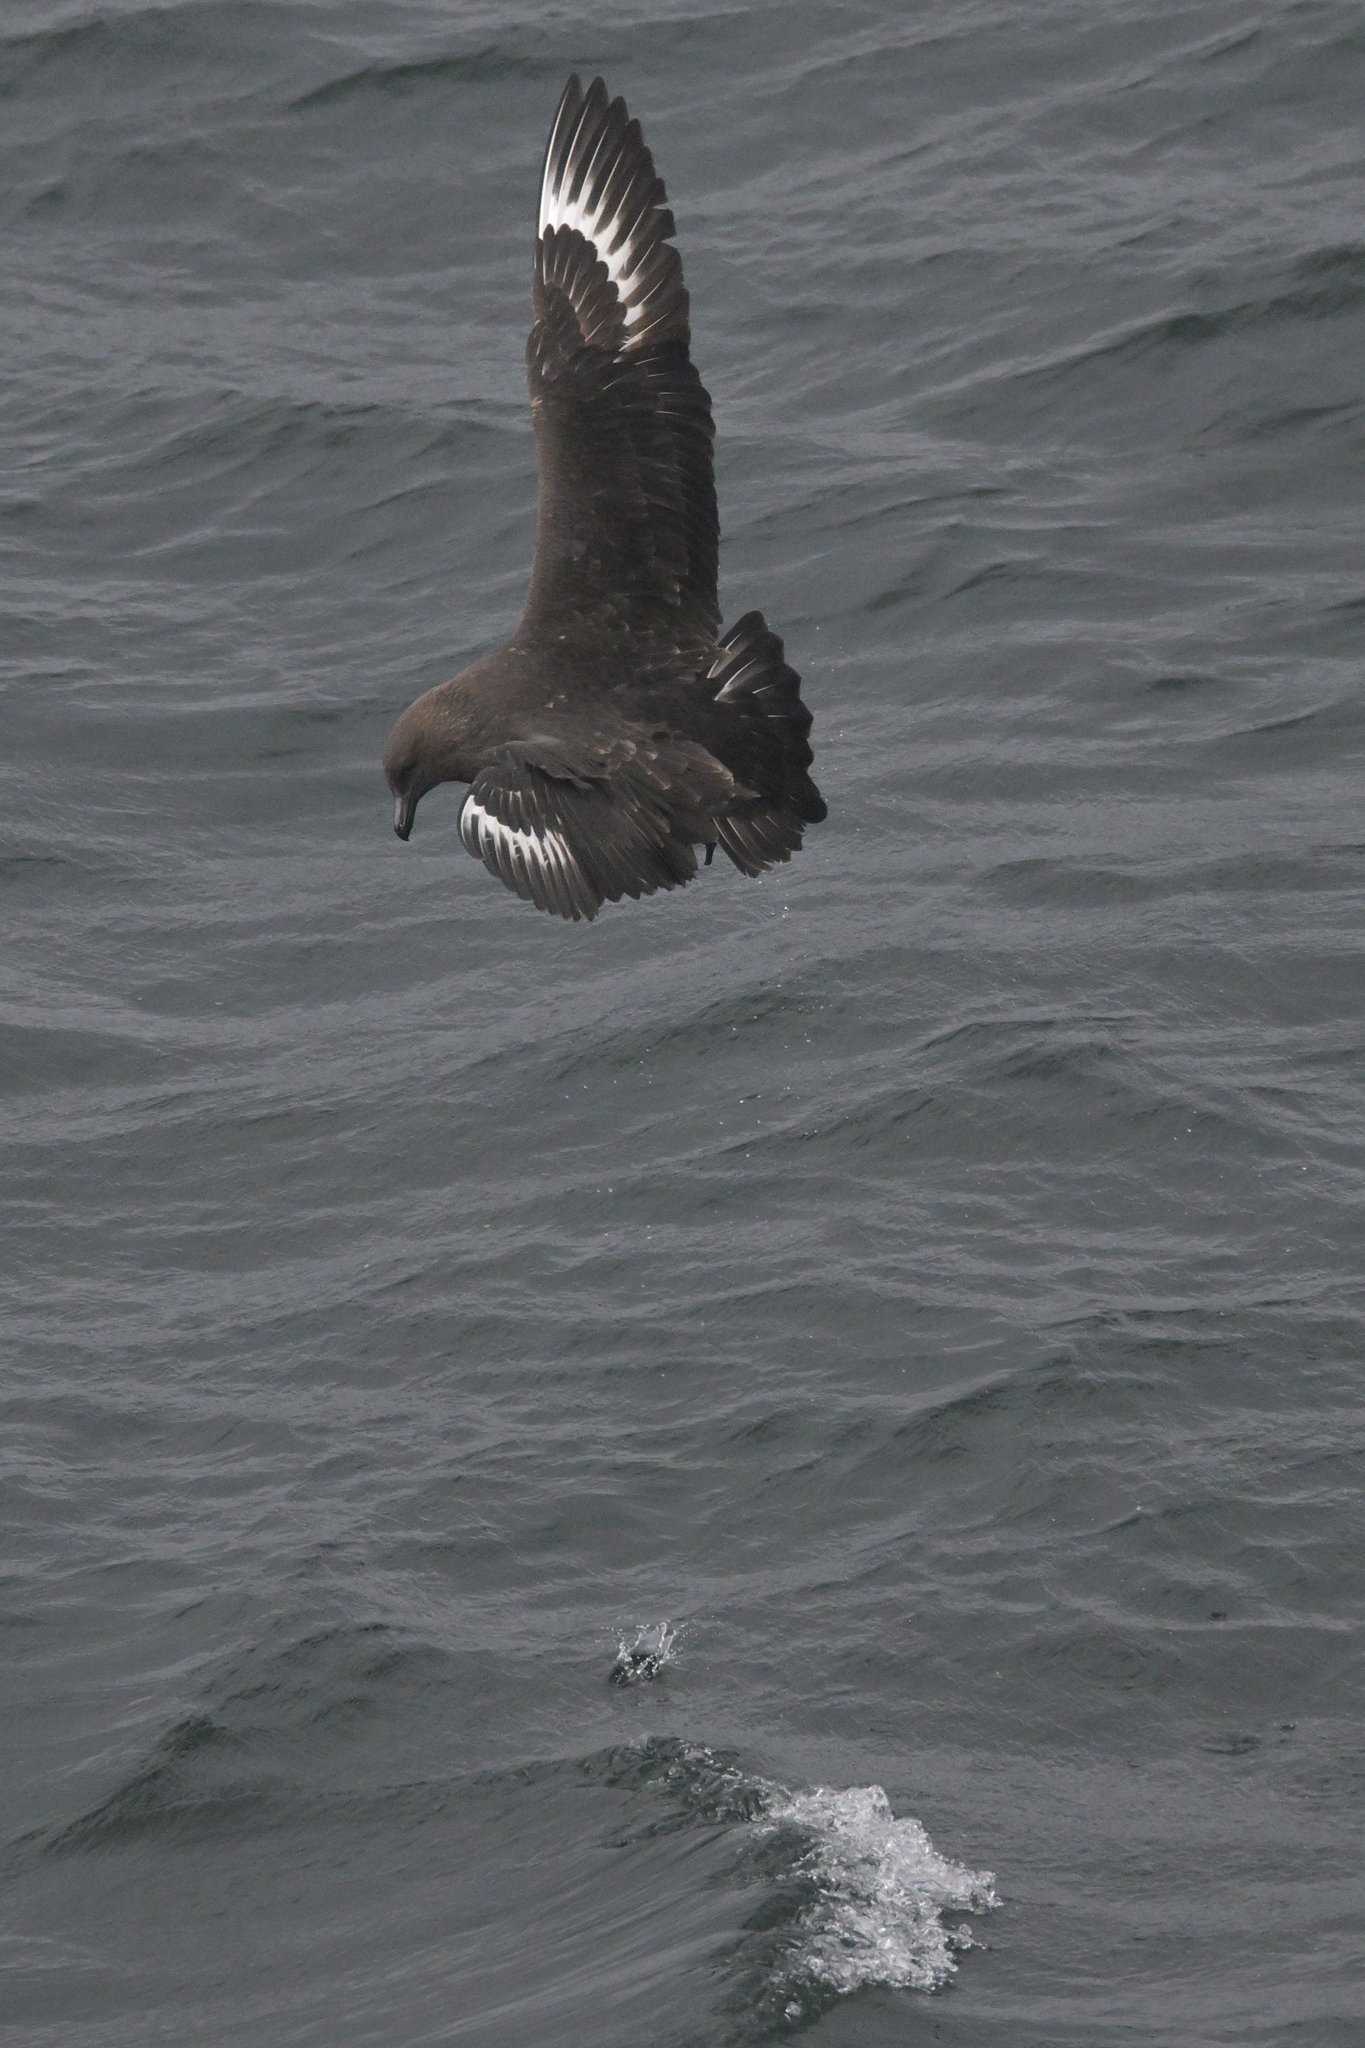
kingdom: Animalia
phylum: Arthropoda
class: Malacostraca
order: Decapoda
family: Munididae
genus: Grimothea
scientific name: Grimothea gregaria
